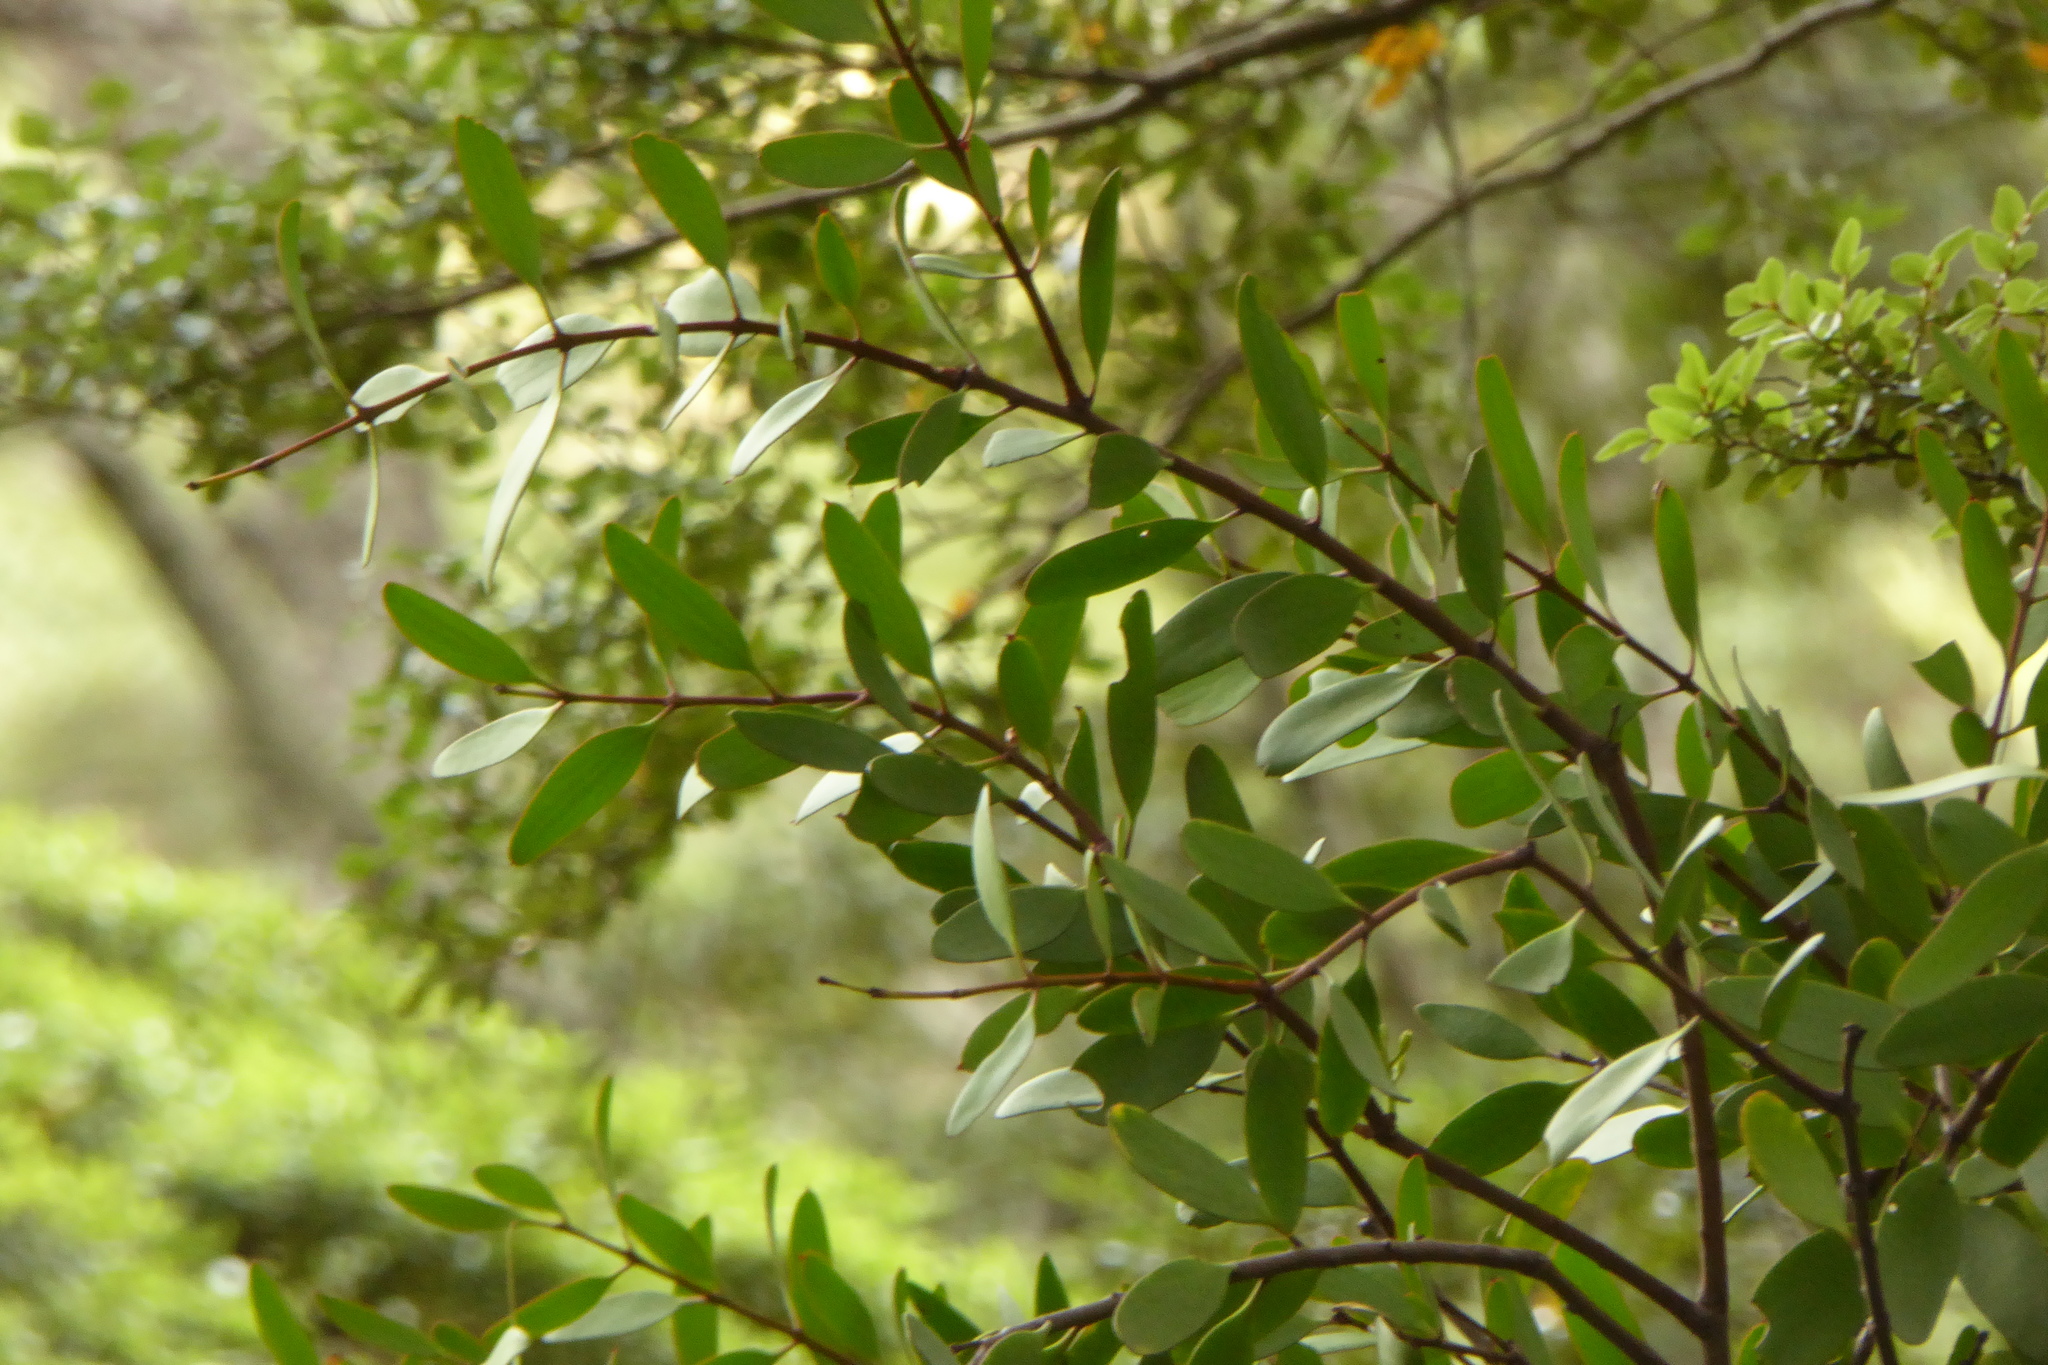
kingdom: Plantae
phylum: Tracheophyta
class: Magnoliopsida
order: Santalales
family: Loranthaceae
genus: Alepis
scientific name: Alepis flavida
